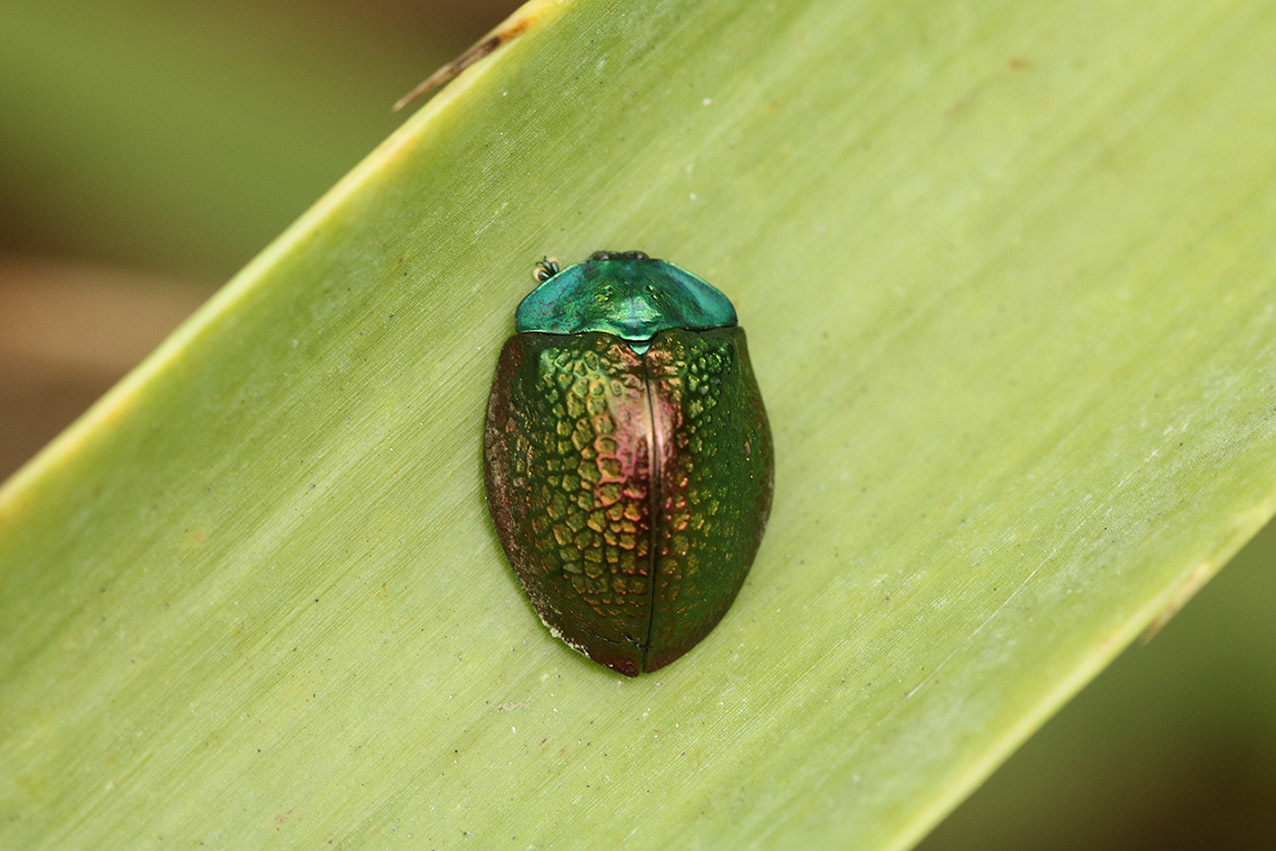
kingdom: Animalia
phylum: Arthropoda
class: Insecta
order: Coleoptera
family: Chrysomelidae
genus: Stolas
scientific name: Stolas festiva
